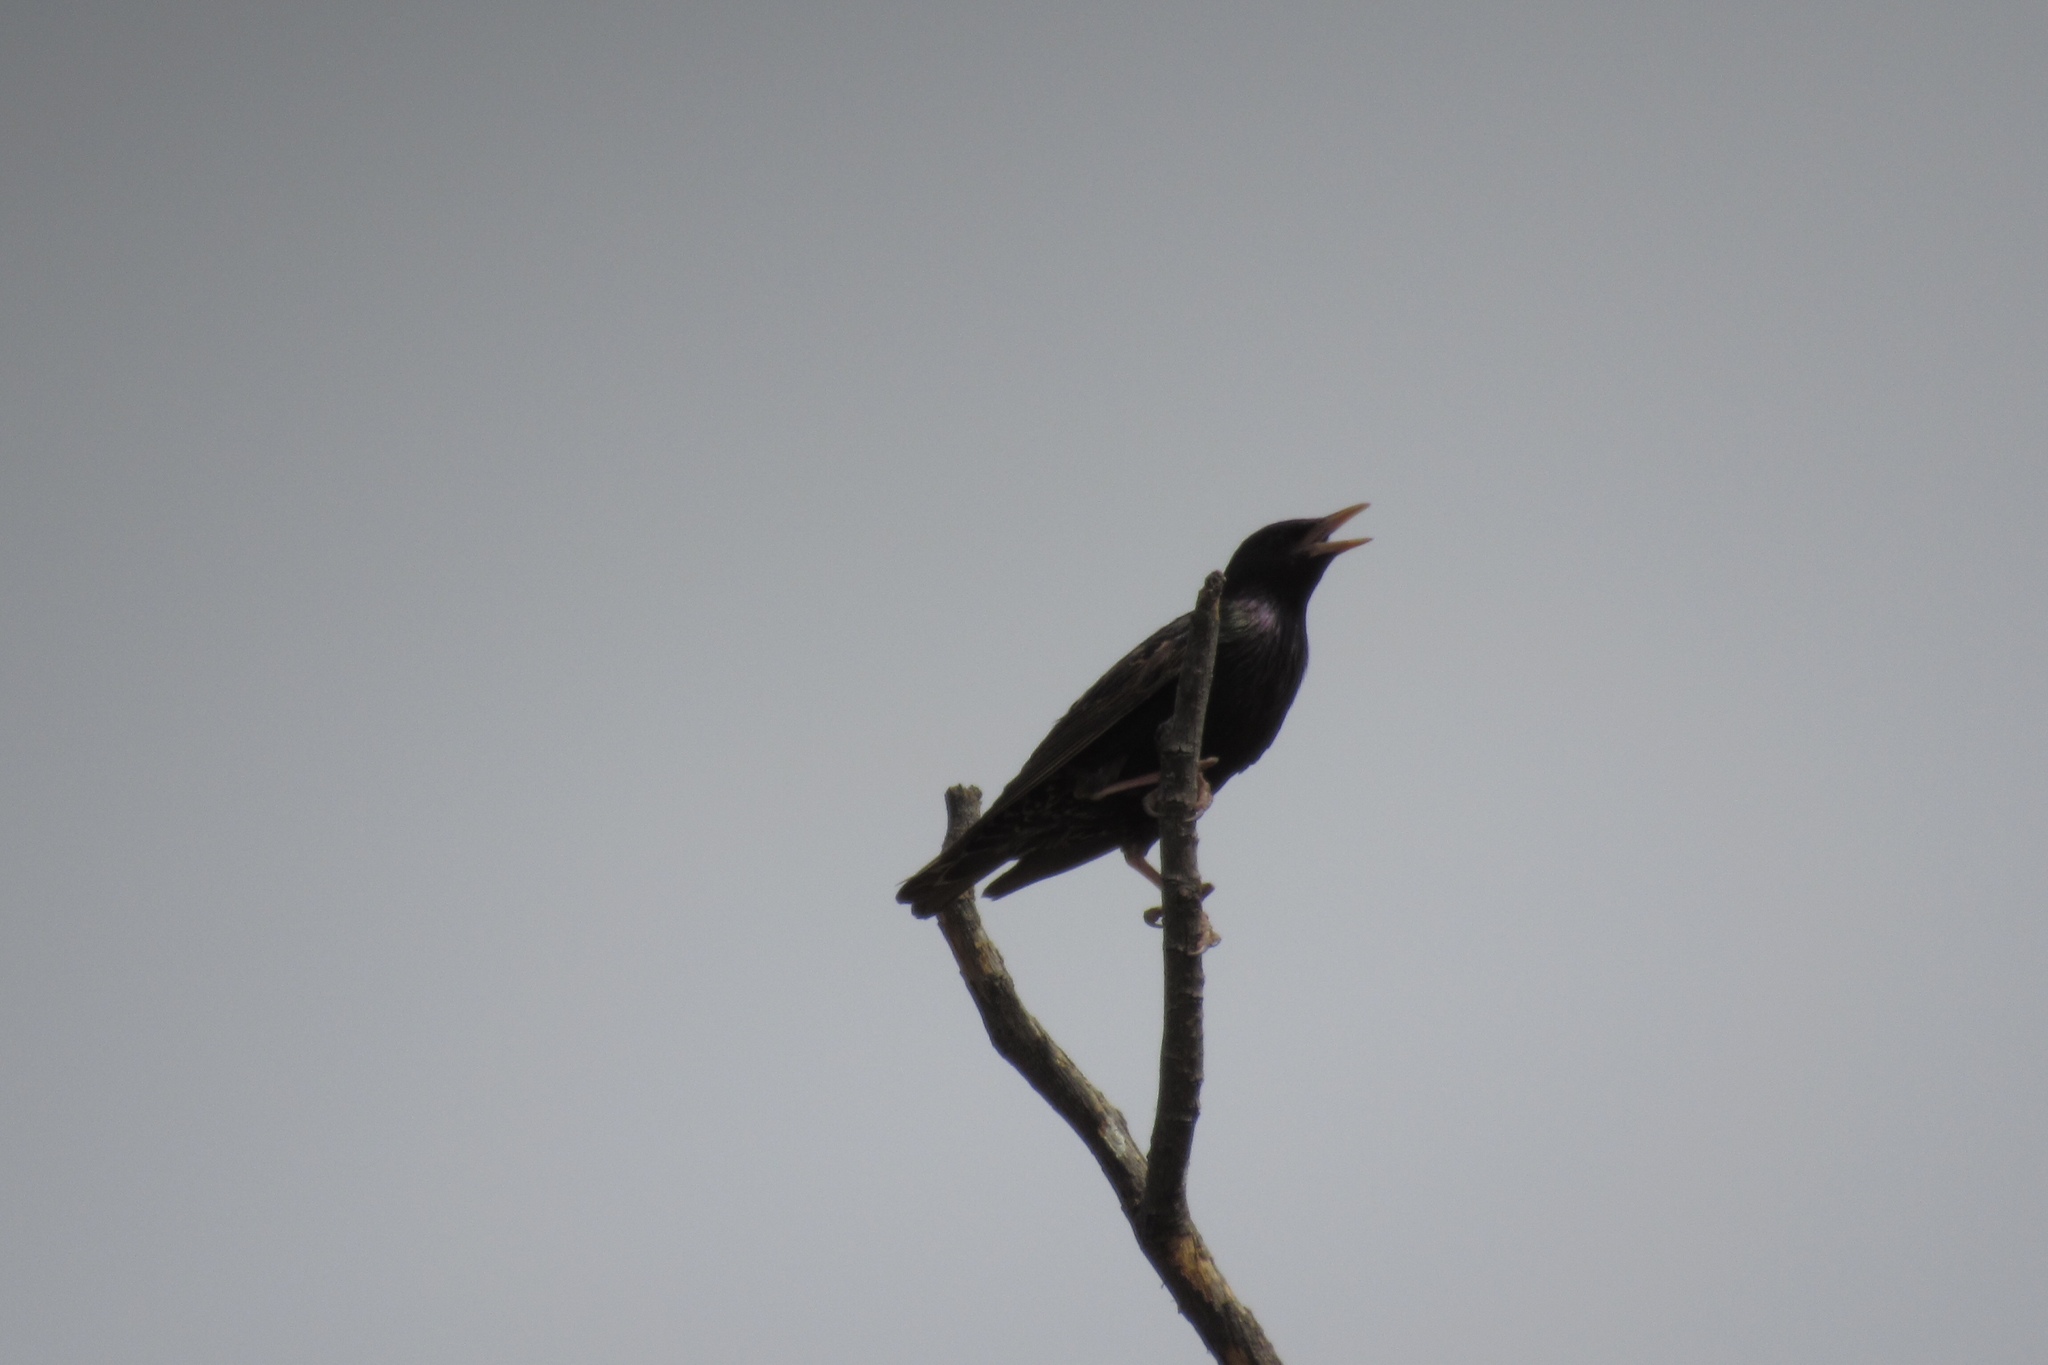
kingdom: Animalia
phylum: Chordata
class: Aves
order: Passeriformes
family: Sturnidae
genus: Sturnus
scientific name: Sturnus vulgaris
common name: Common starling
